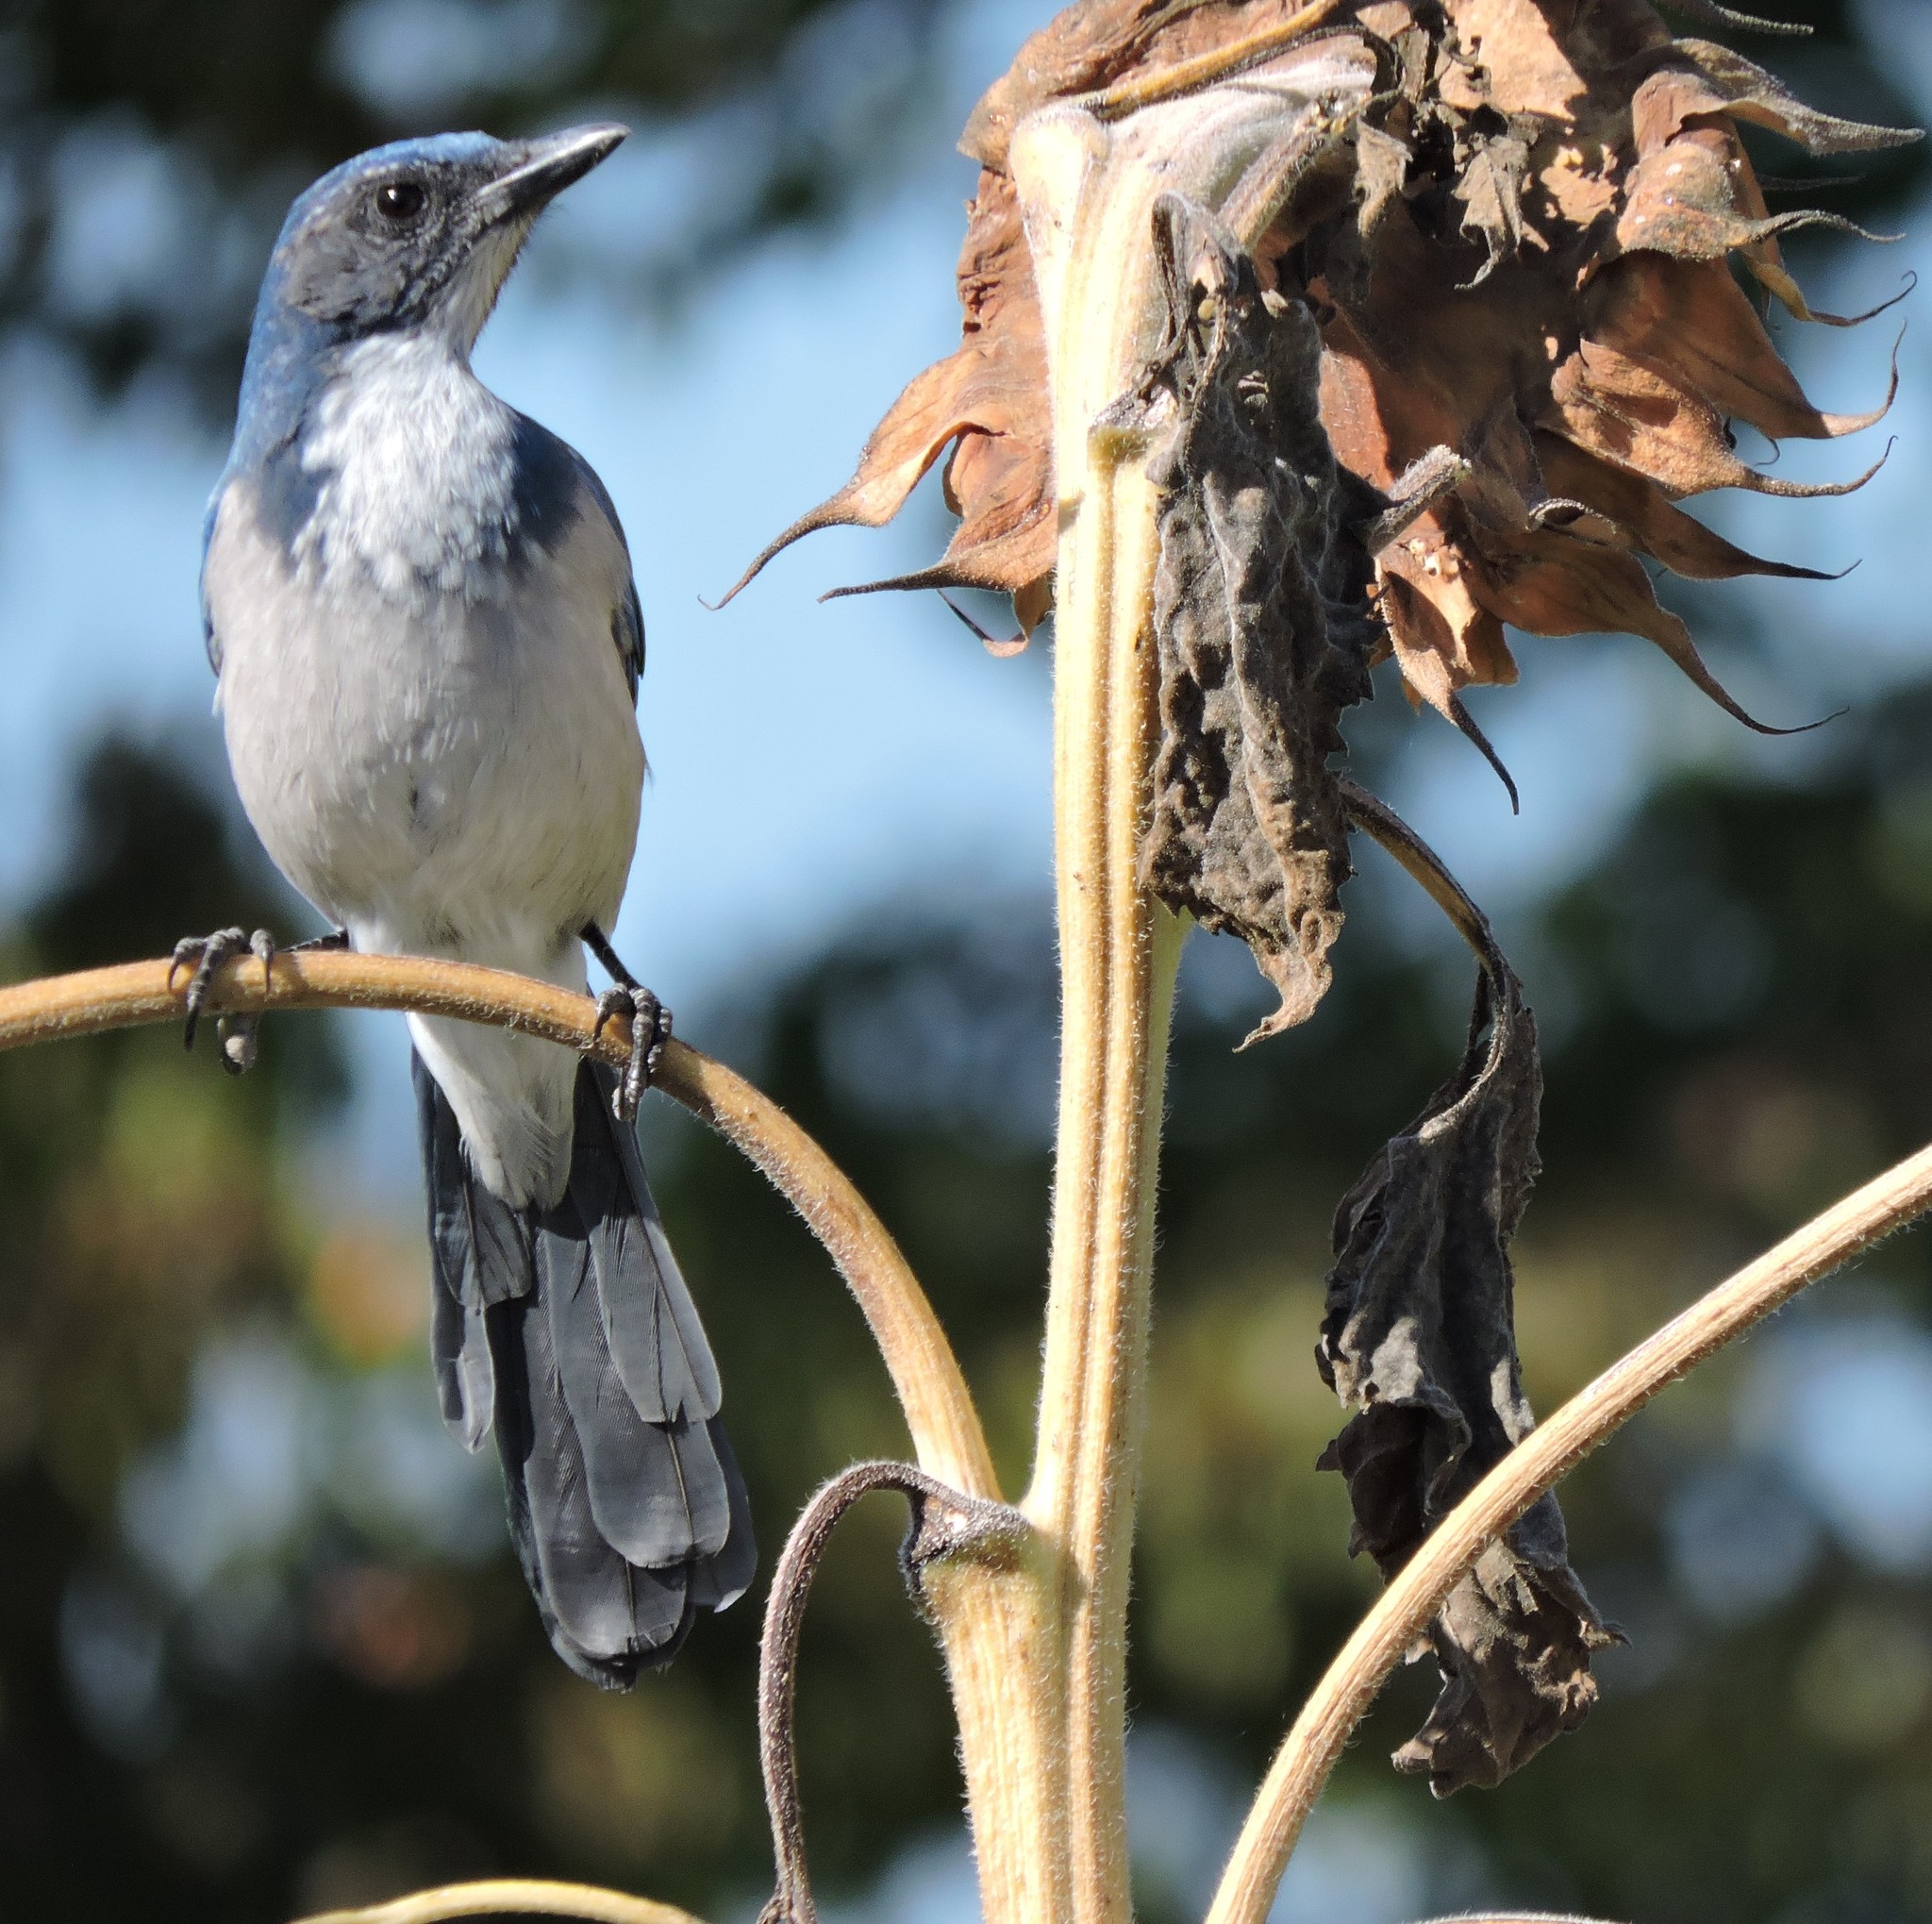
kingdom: Animalia
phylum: Chordata
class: Aves
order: Passeriformes
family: Corvidae
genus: Aphelocoma
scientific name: Aphelocoma californica
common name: California scrub-jay
